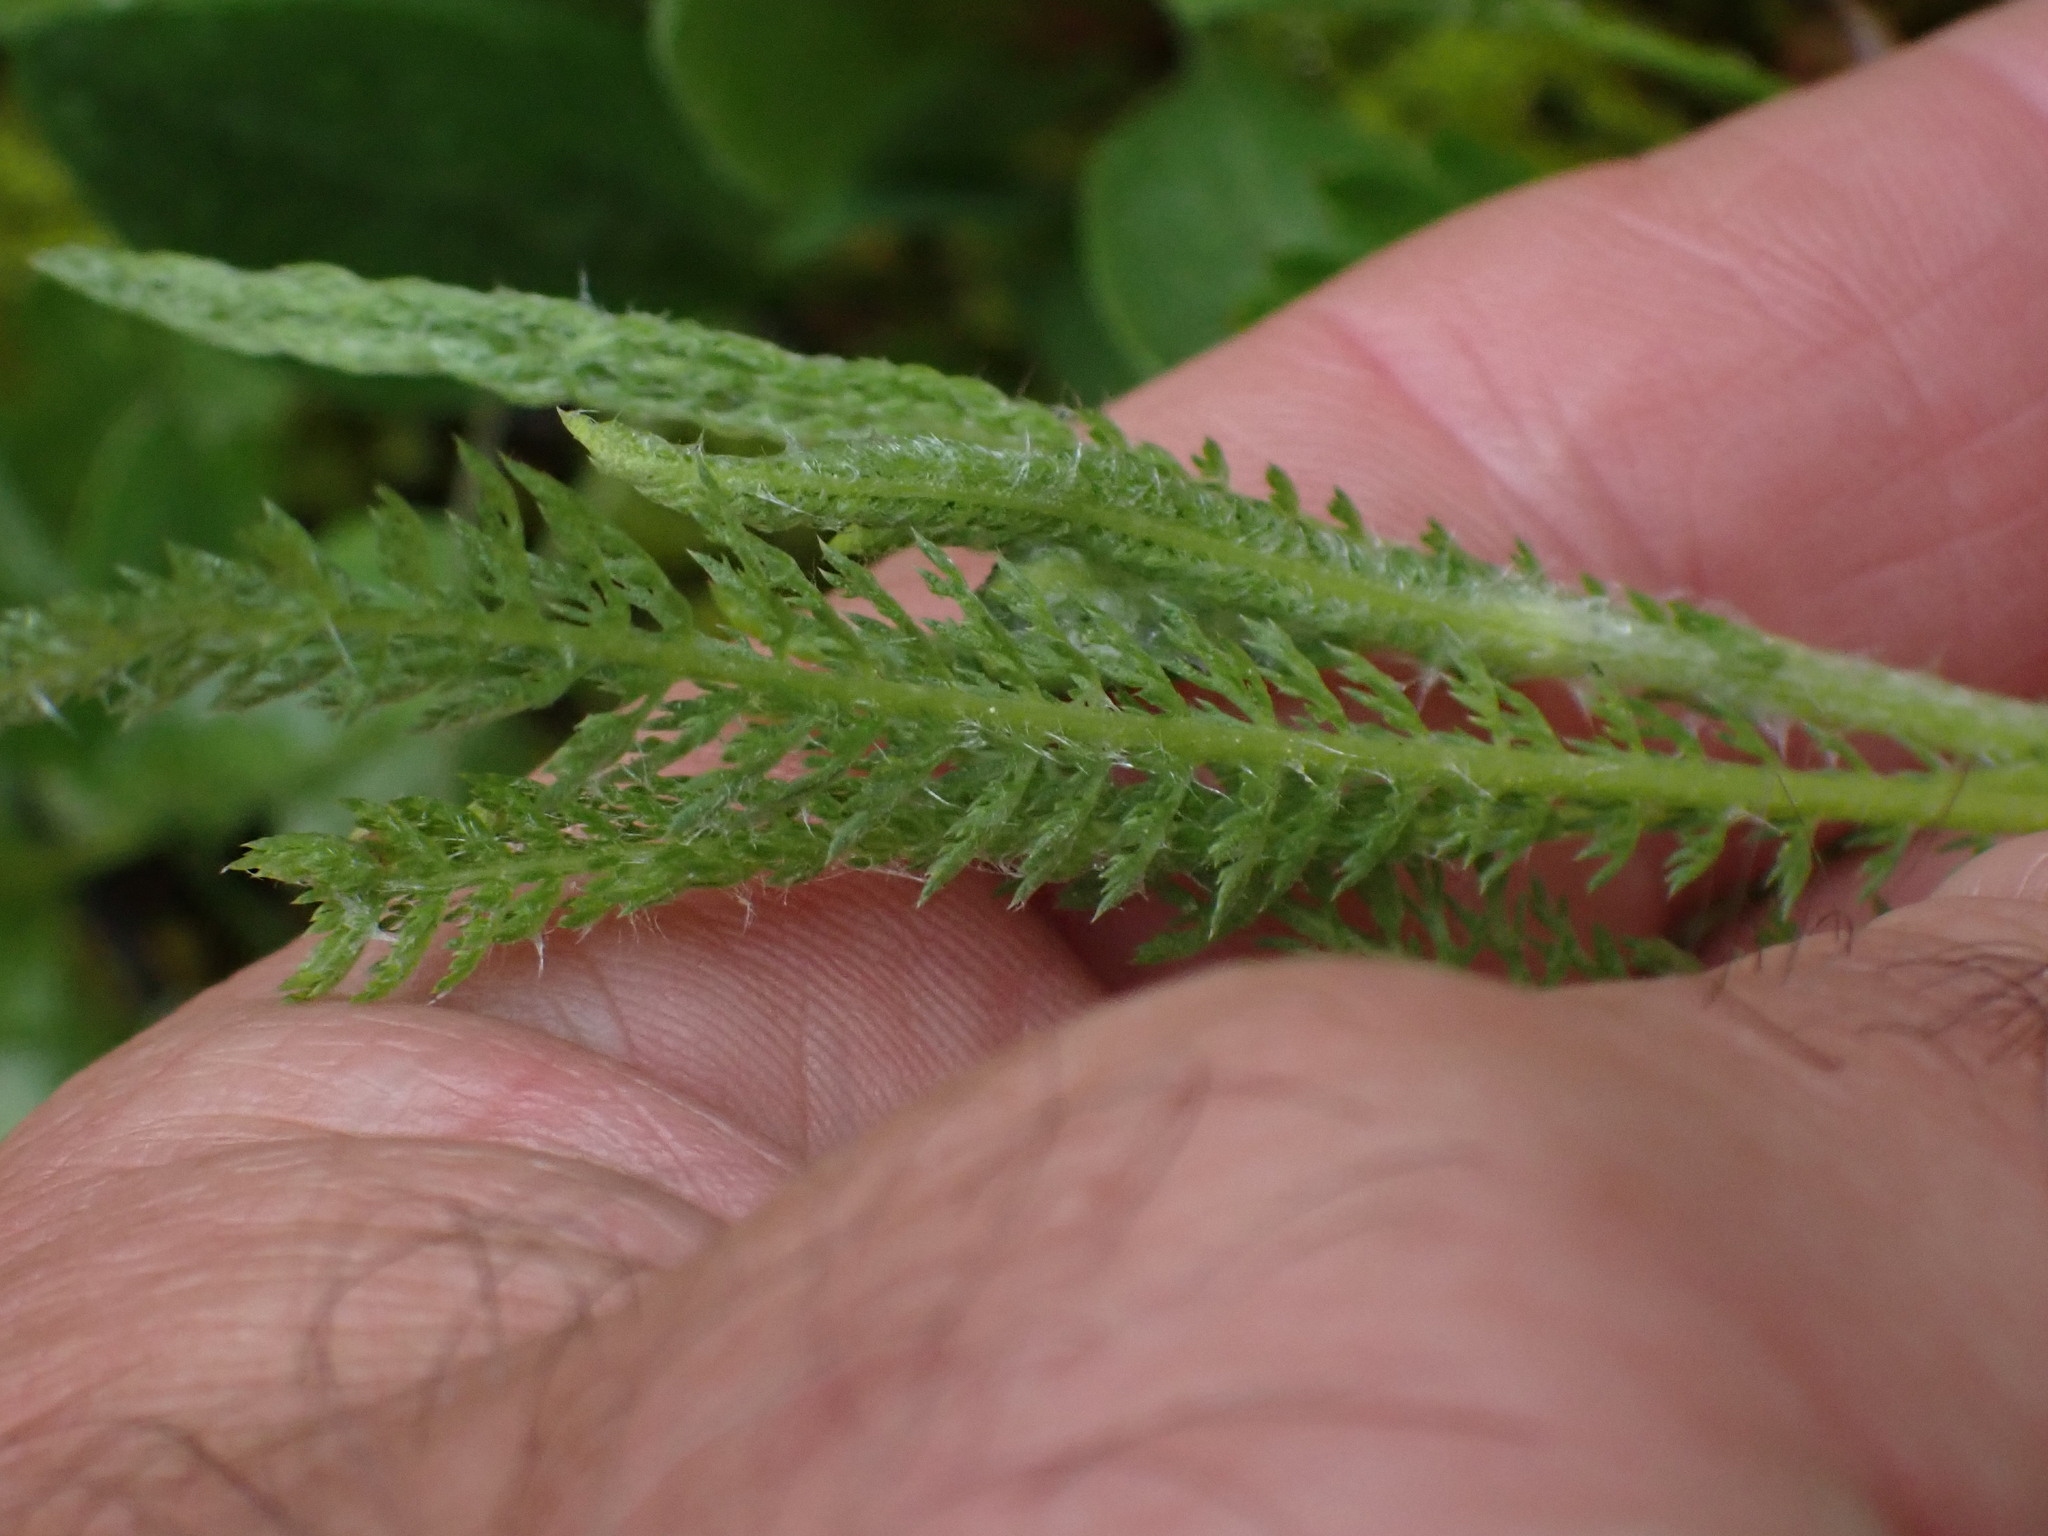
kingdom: Plantae
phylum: Tracheophyta
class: Magnoliopsida
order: Asterales
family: Asteraceae
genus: Achillea
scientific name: Achillea millefolium
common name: Yarrow
